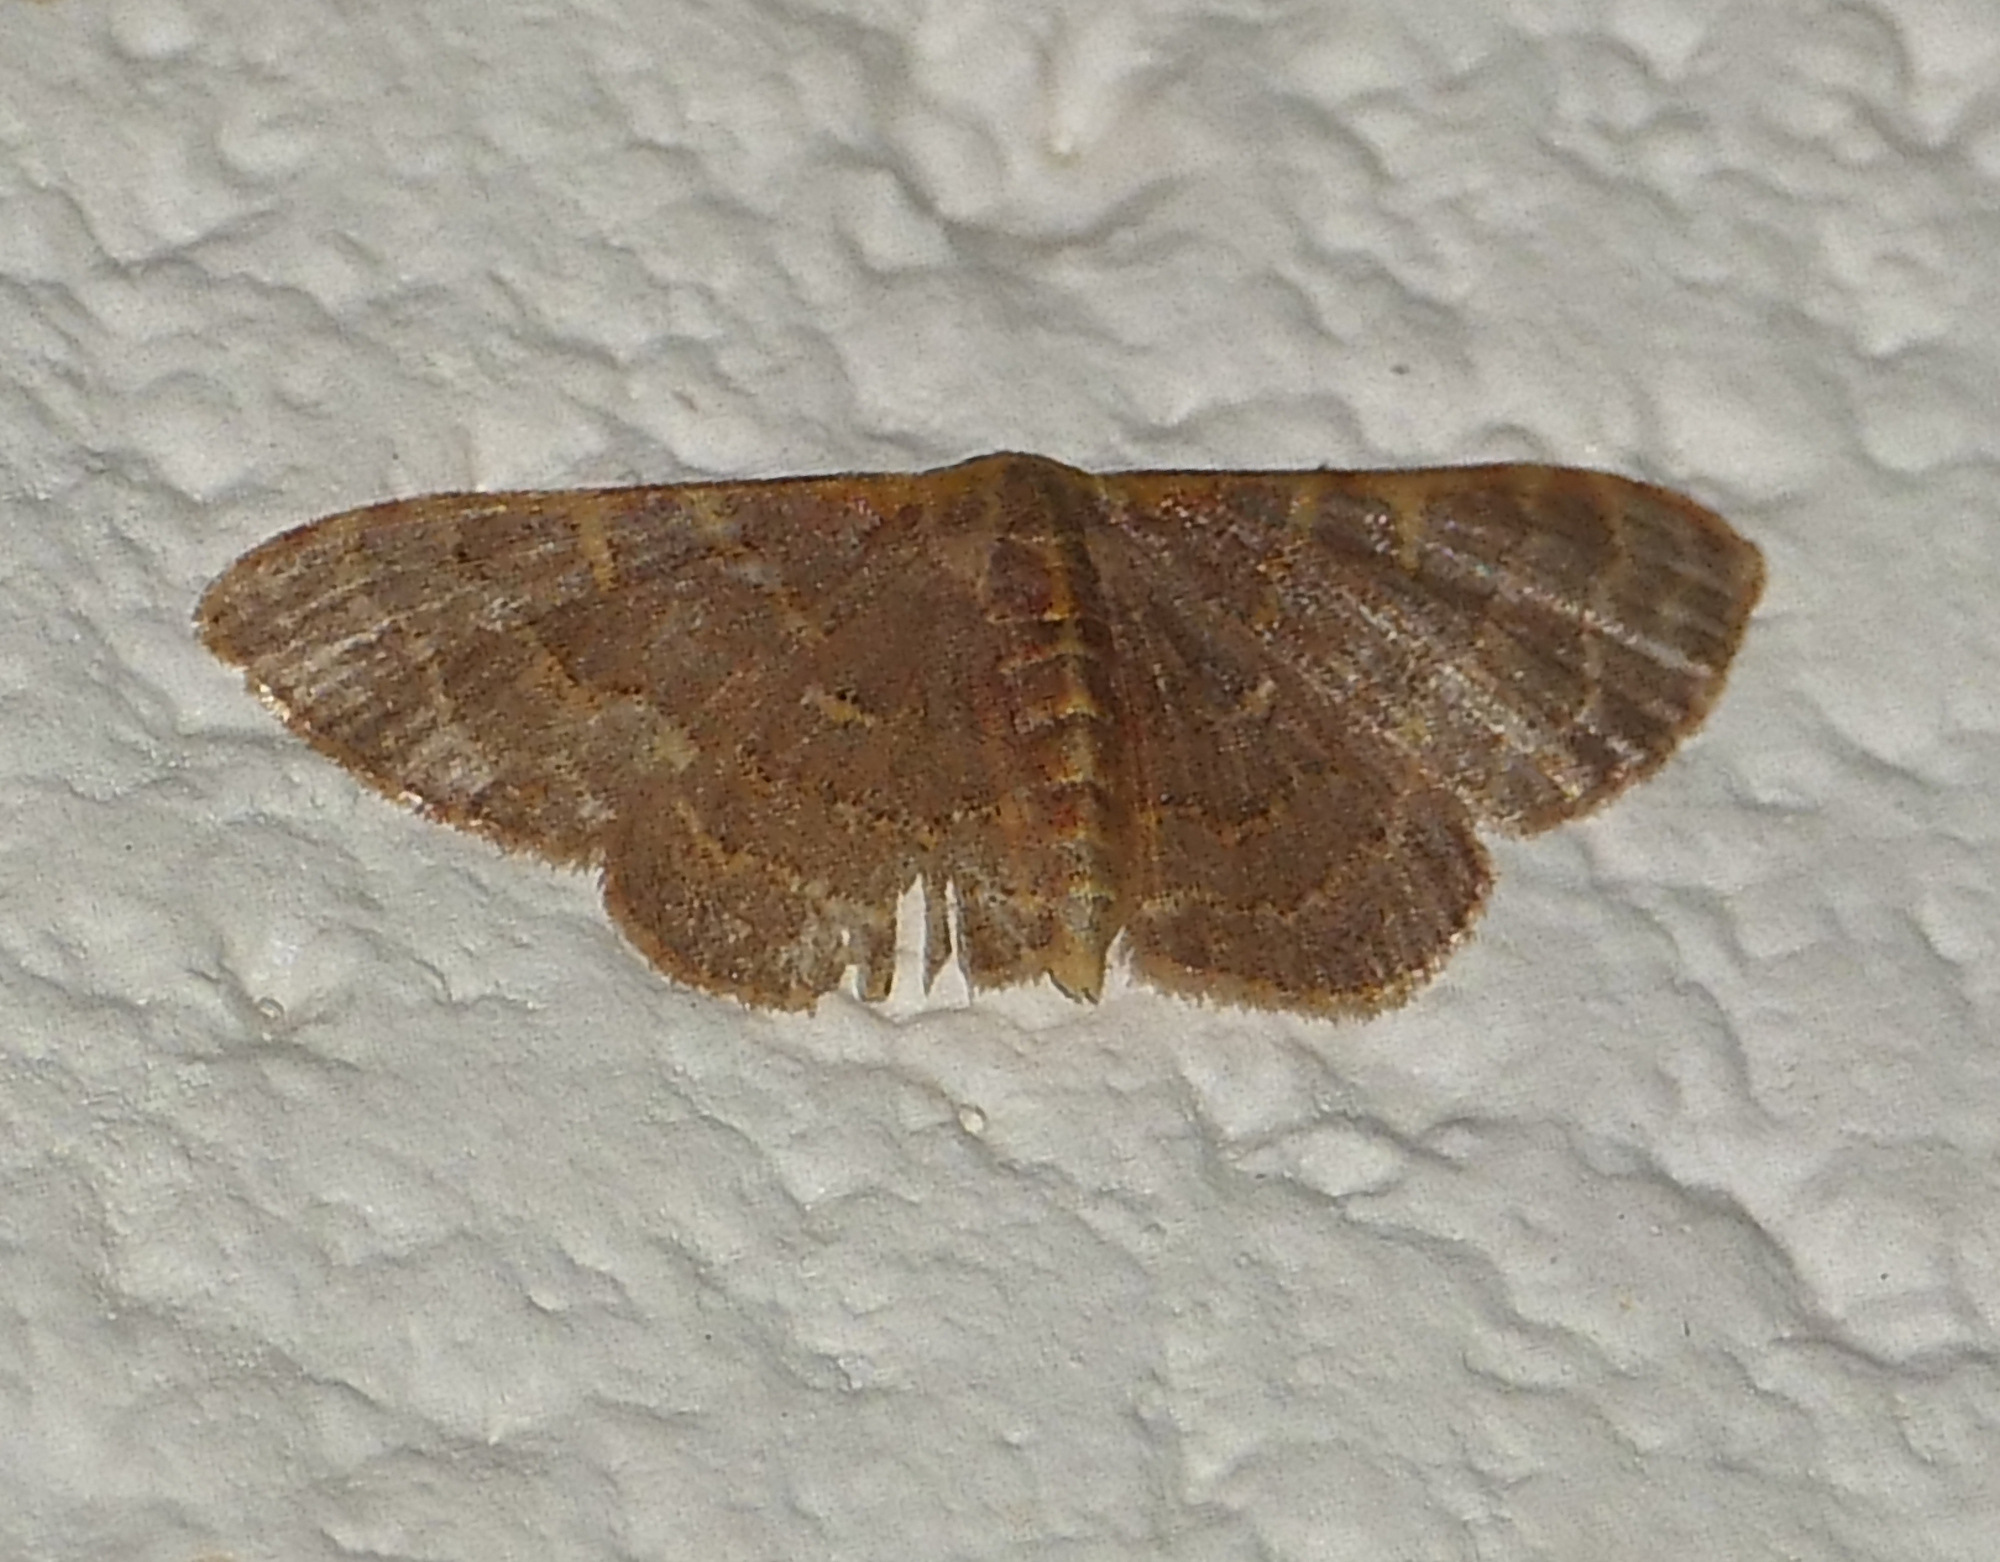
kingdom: Animalia
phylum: Arthropoda
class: Insecta
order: Lepidoptera
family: Geometridae
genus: Leptostales
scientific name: Leptostales pannaria
